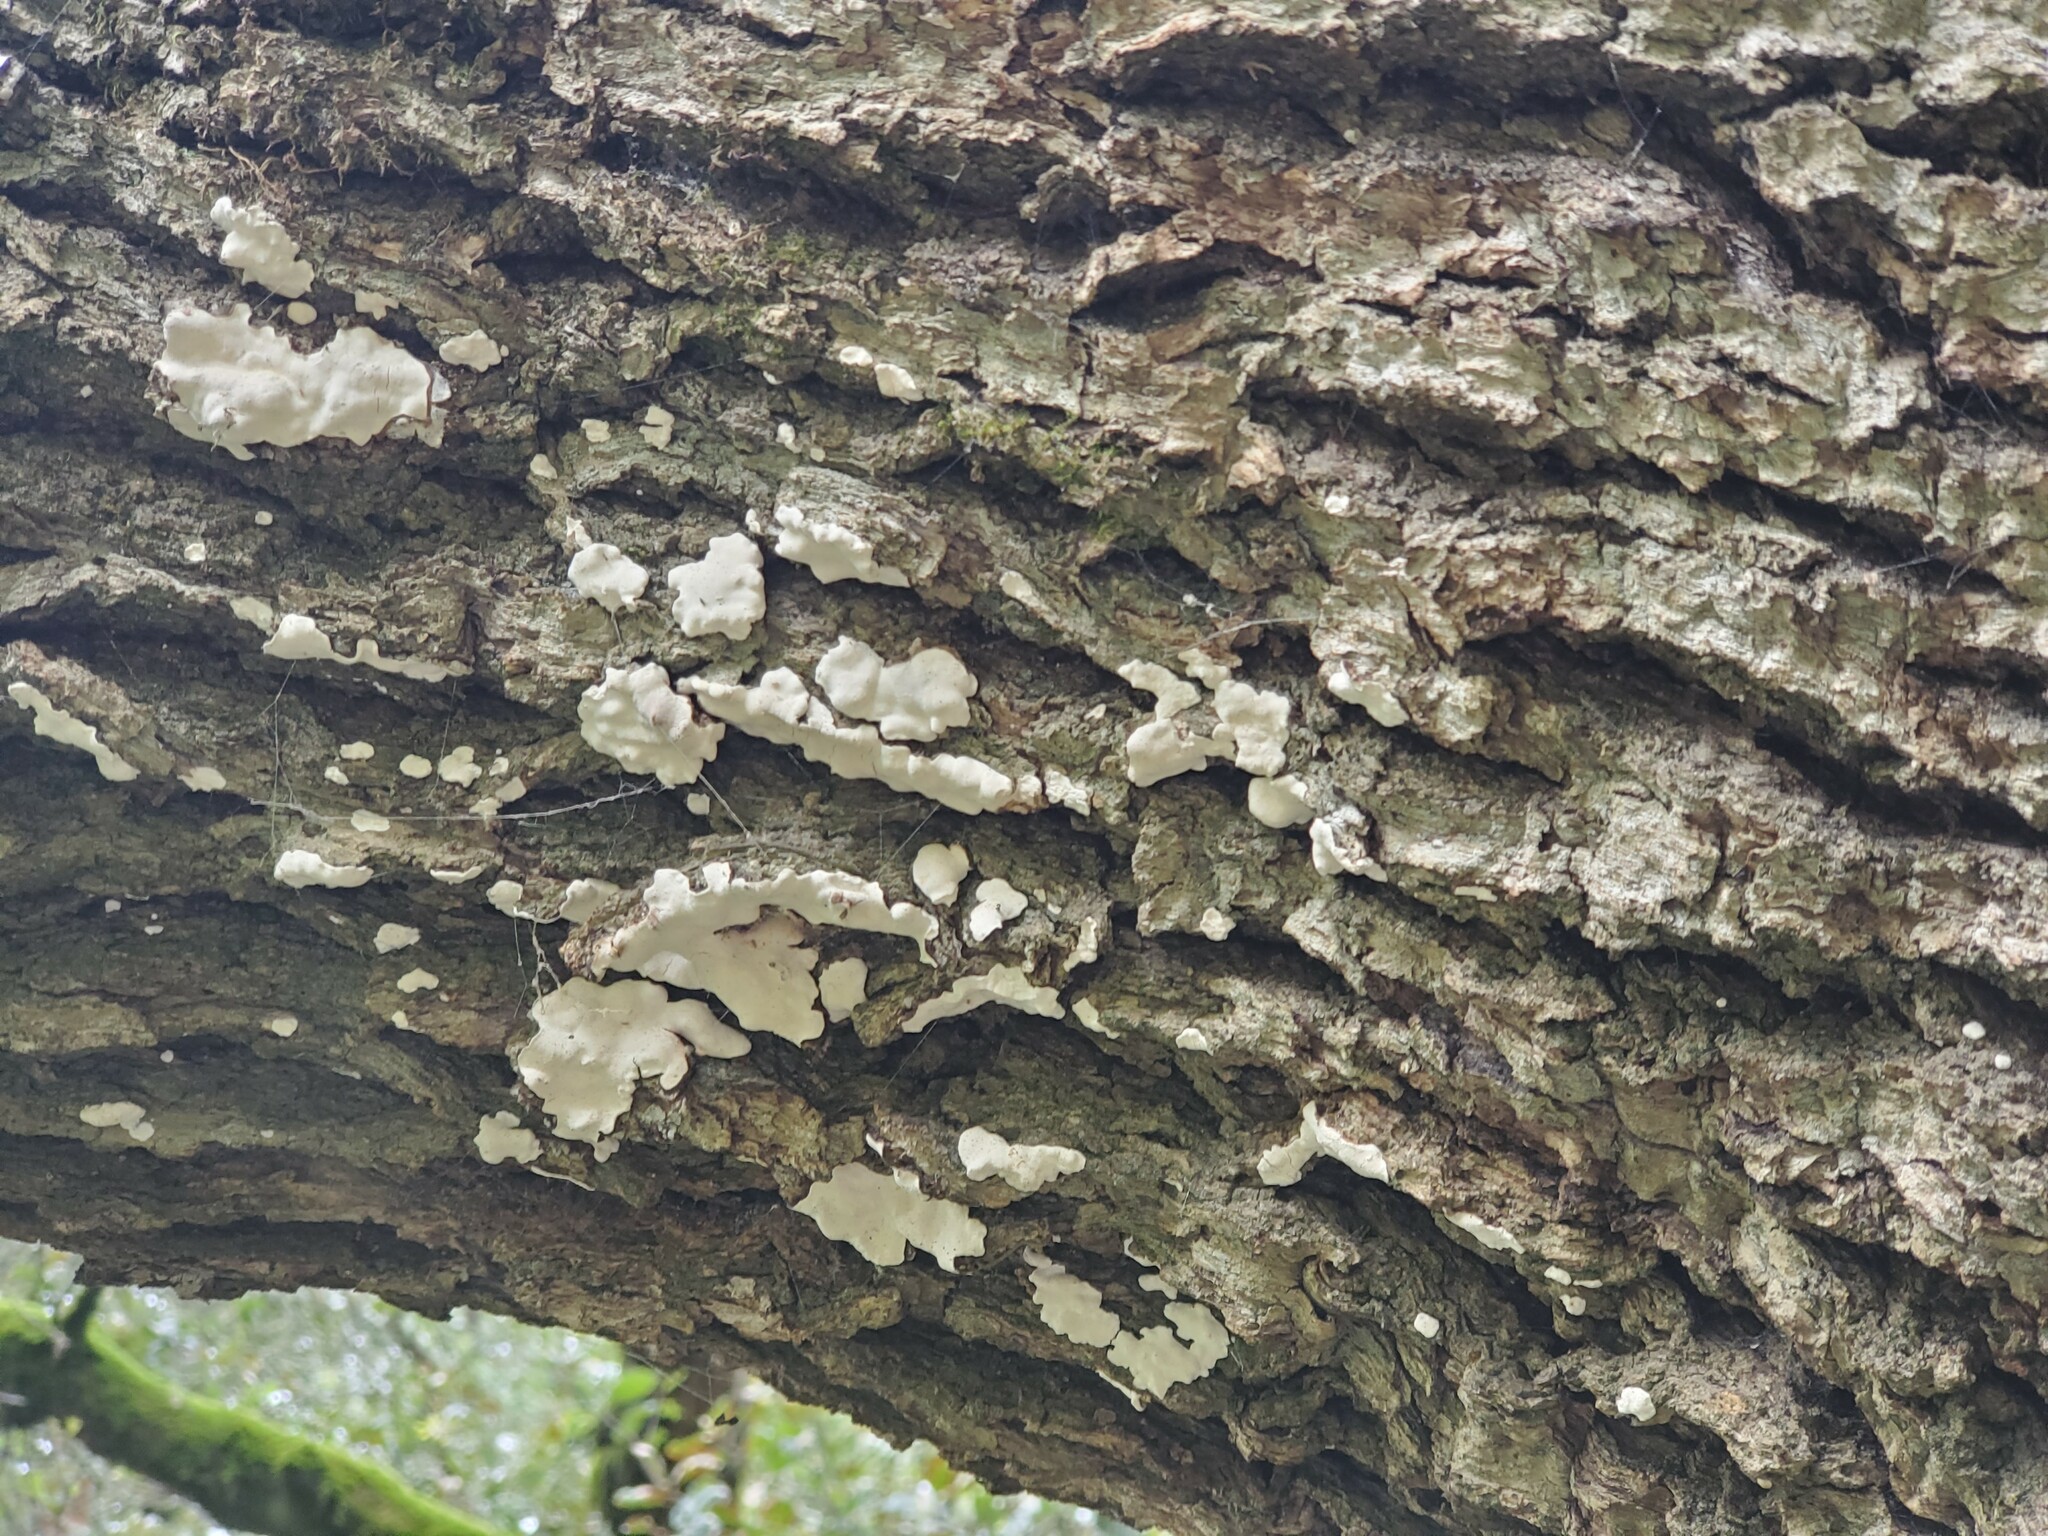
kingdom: Fungi
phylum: Basidiomycota
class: Agaricomycetes
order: Agaricales
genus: Dendrothele
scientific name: Dendrothele candida
